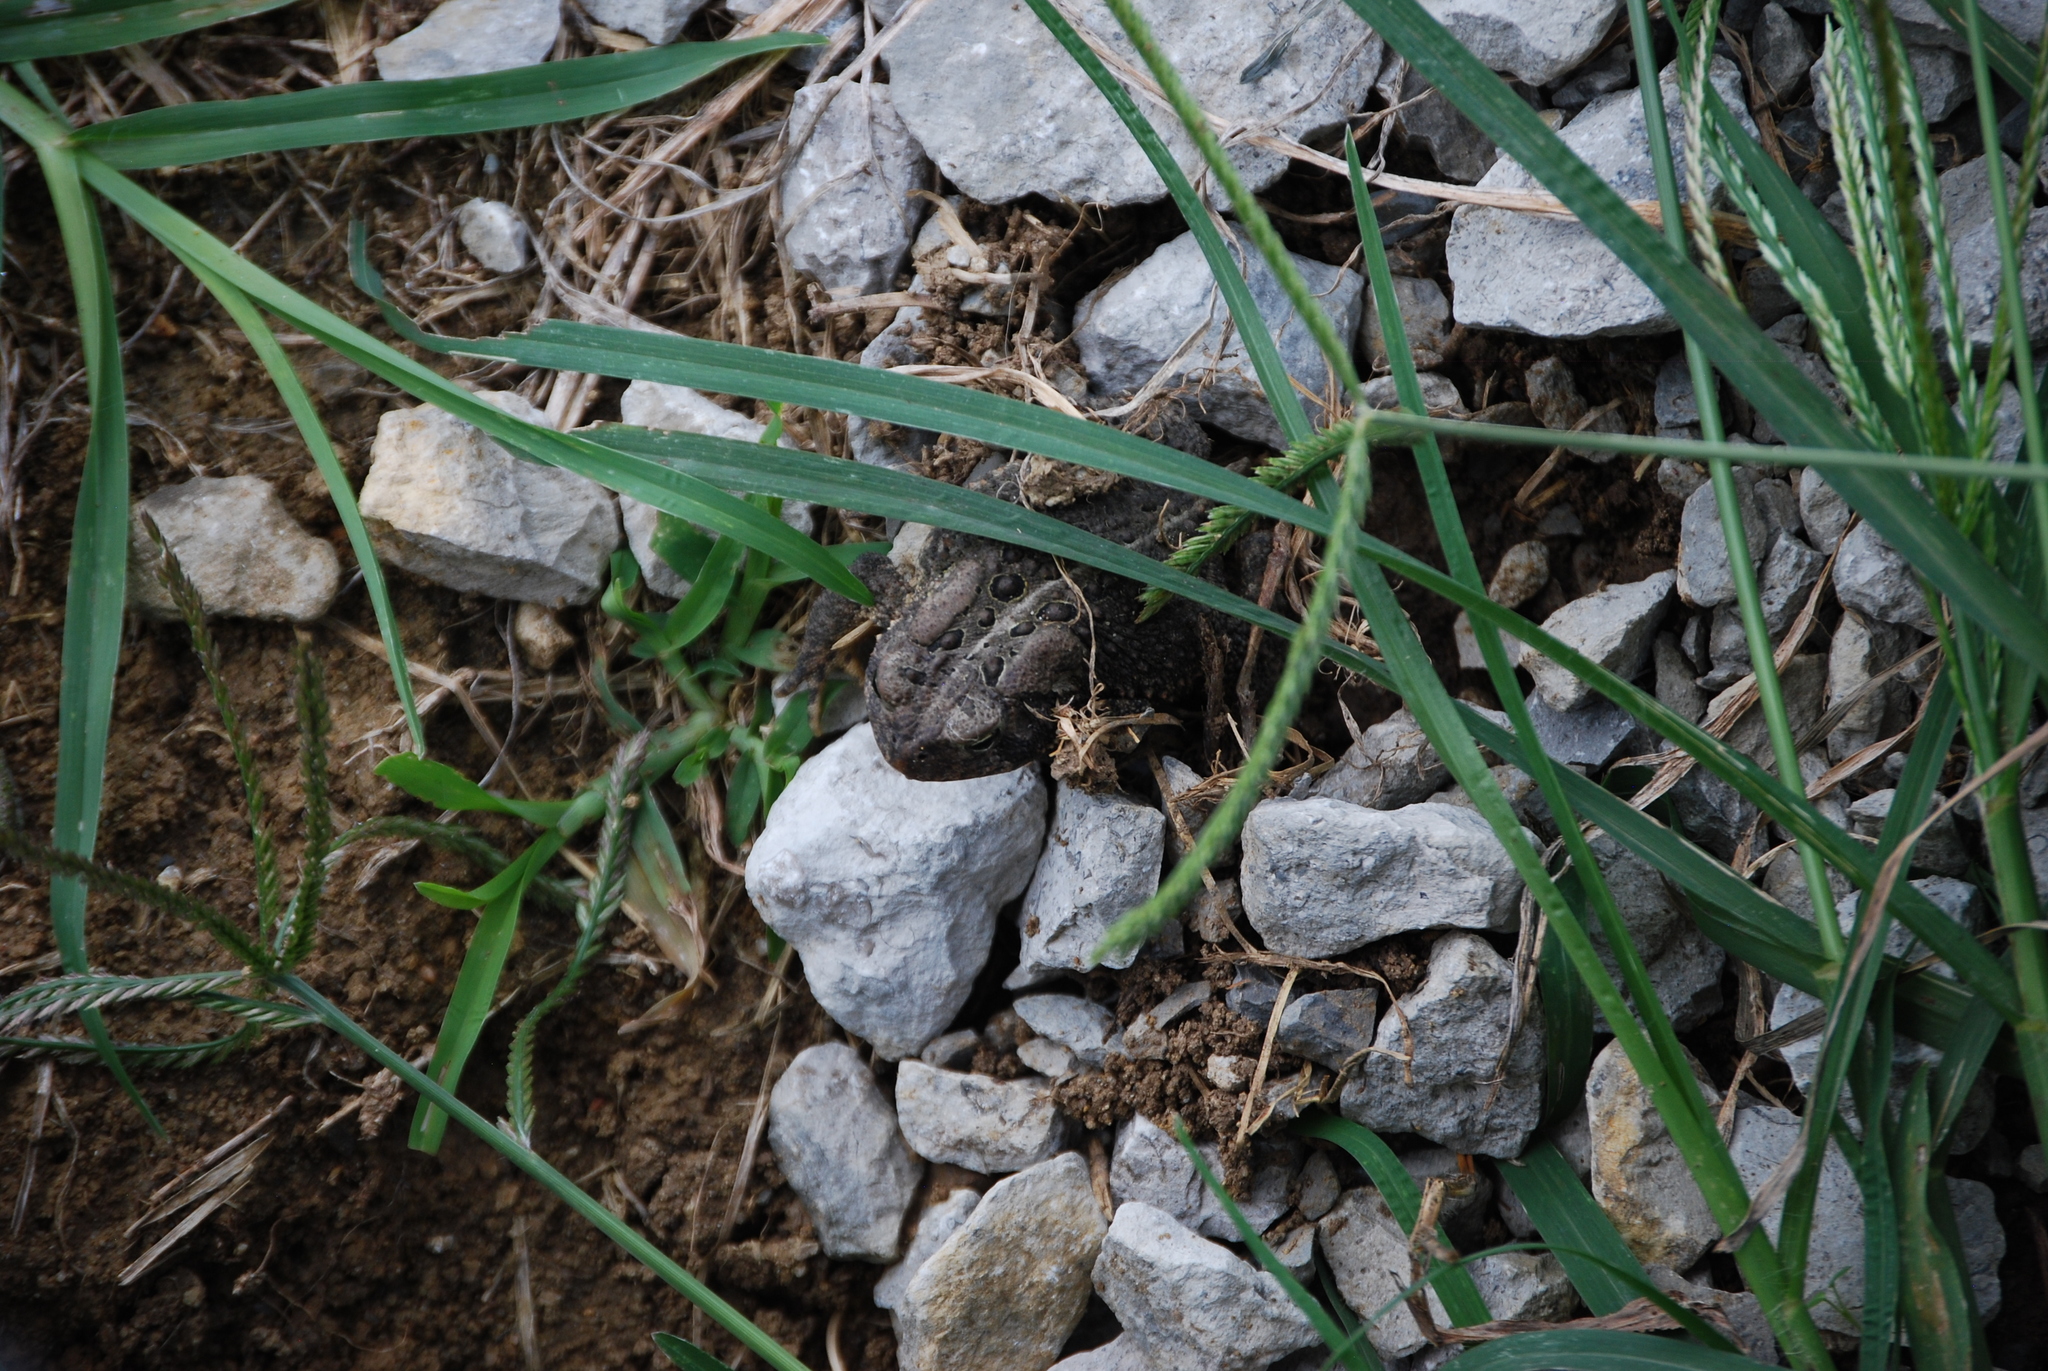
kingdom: Animalia
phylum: Chordata
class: Amphibia
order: Anura
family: Bufonidae
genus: Anaxyrus
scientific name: Anaxyrus americanus
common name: American toad
